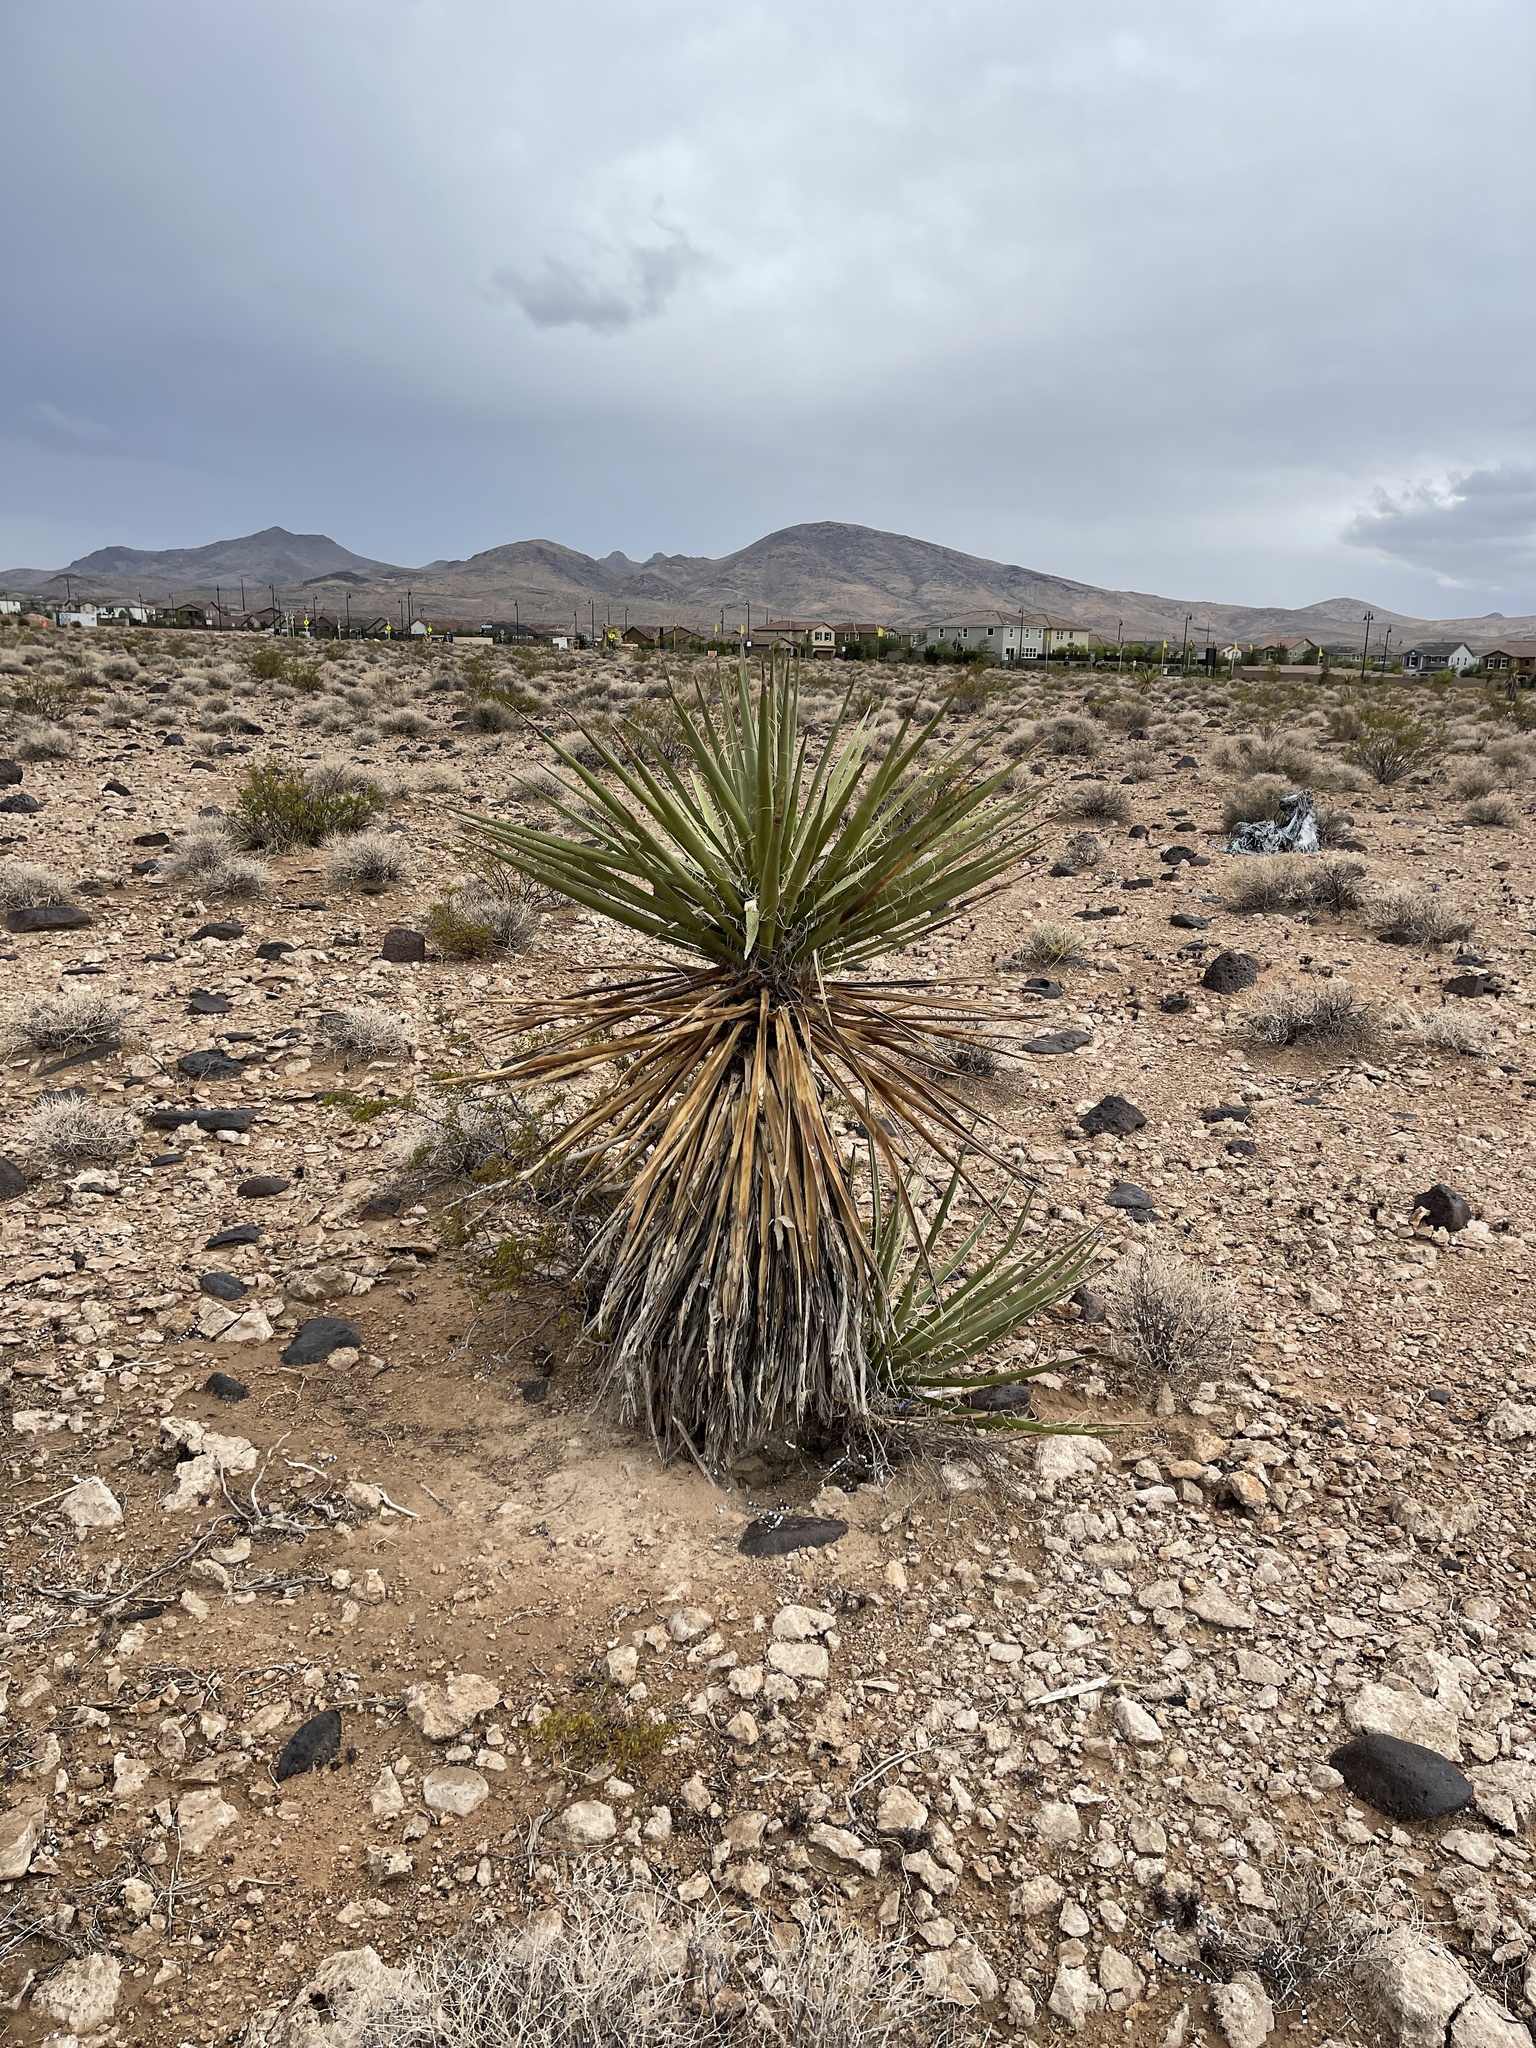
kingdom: Plantae
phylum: Tracheophyta
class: Liliopsida
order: Asparagales
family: Asparagaceae
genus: Yucca
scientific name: Yucca schidigera
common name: Mojave yucca
